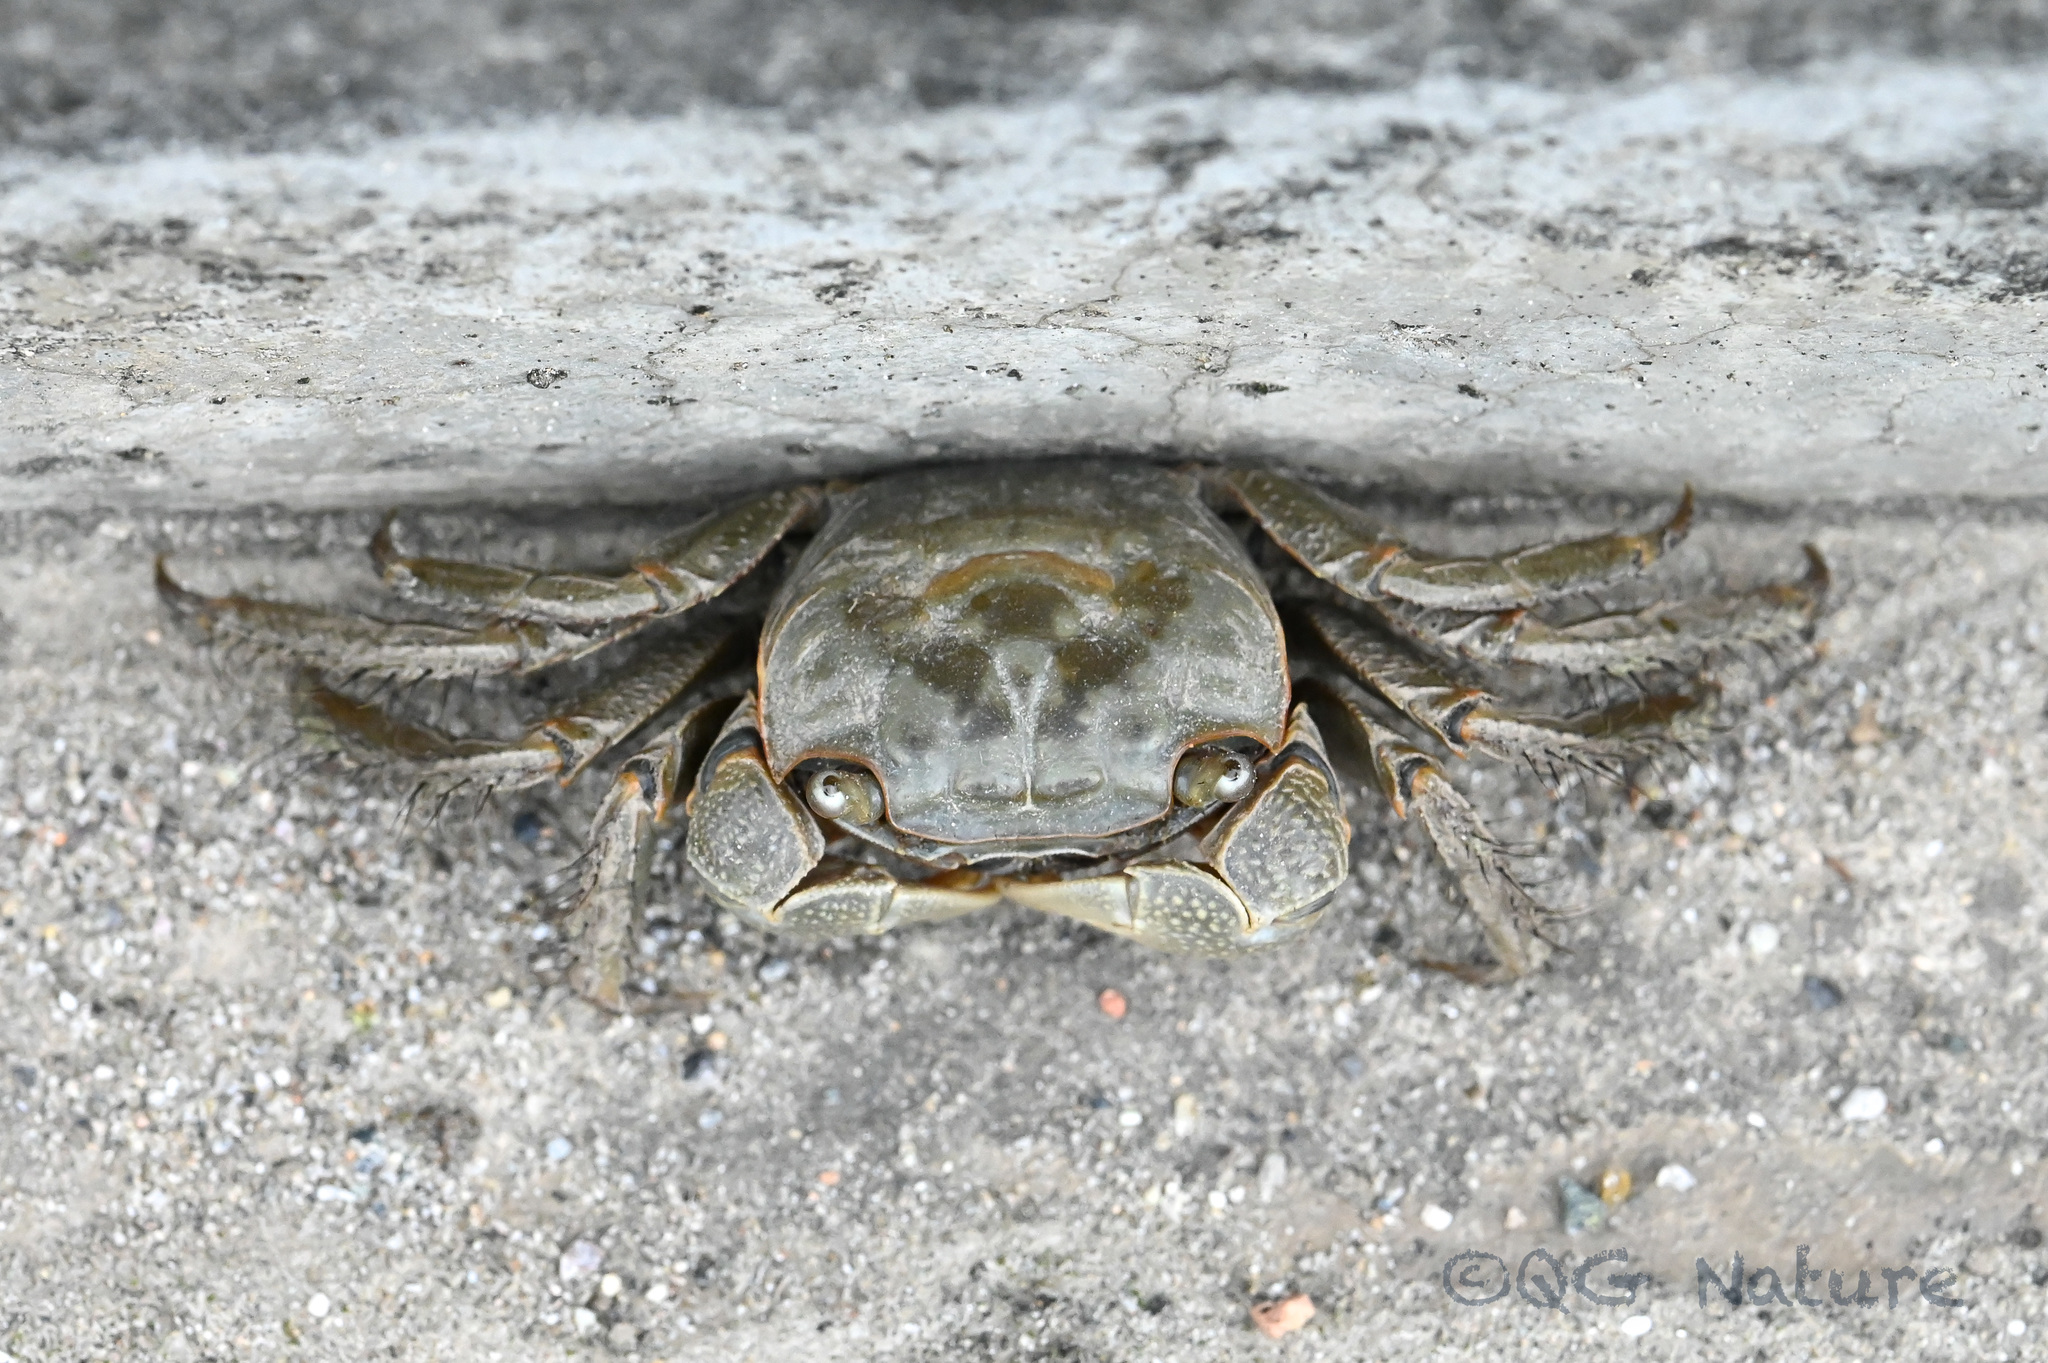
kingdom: Animalia
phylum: Arthropoda
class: Malacostraca
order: Decapoda
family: Sesarmidae
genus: Orisarma
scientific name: Orisarma neglectum
